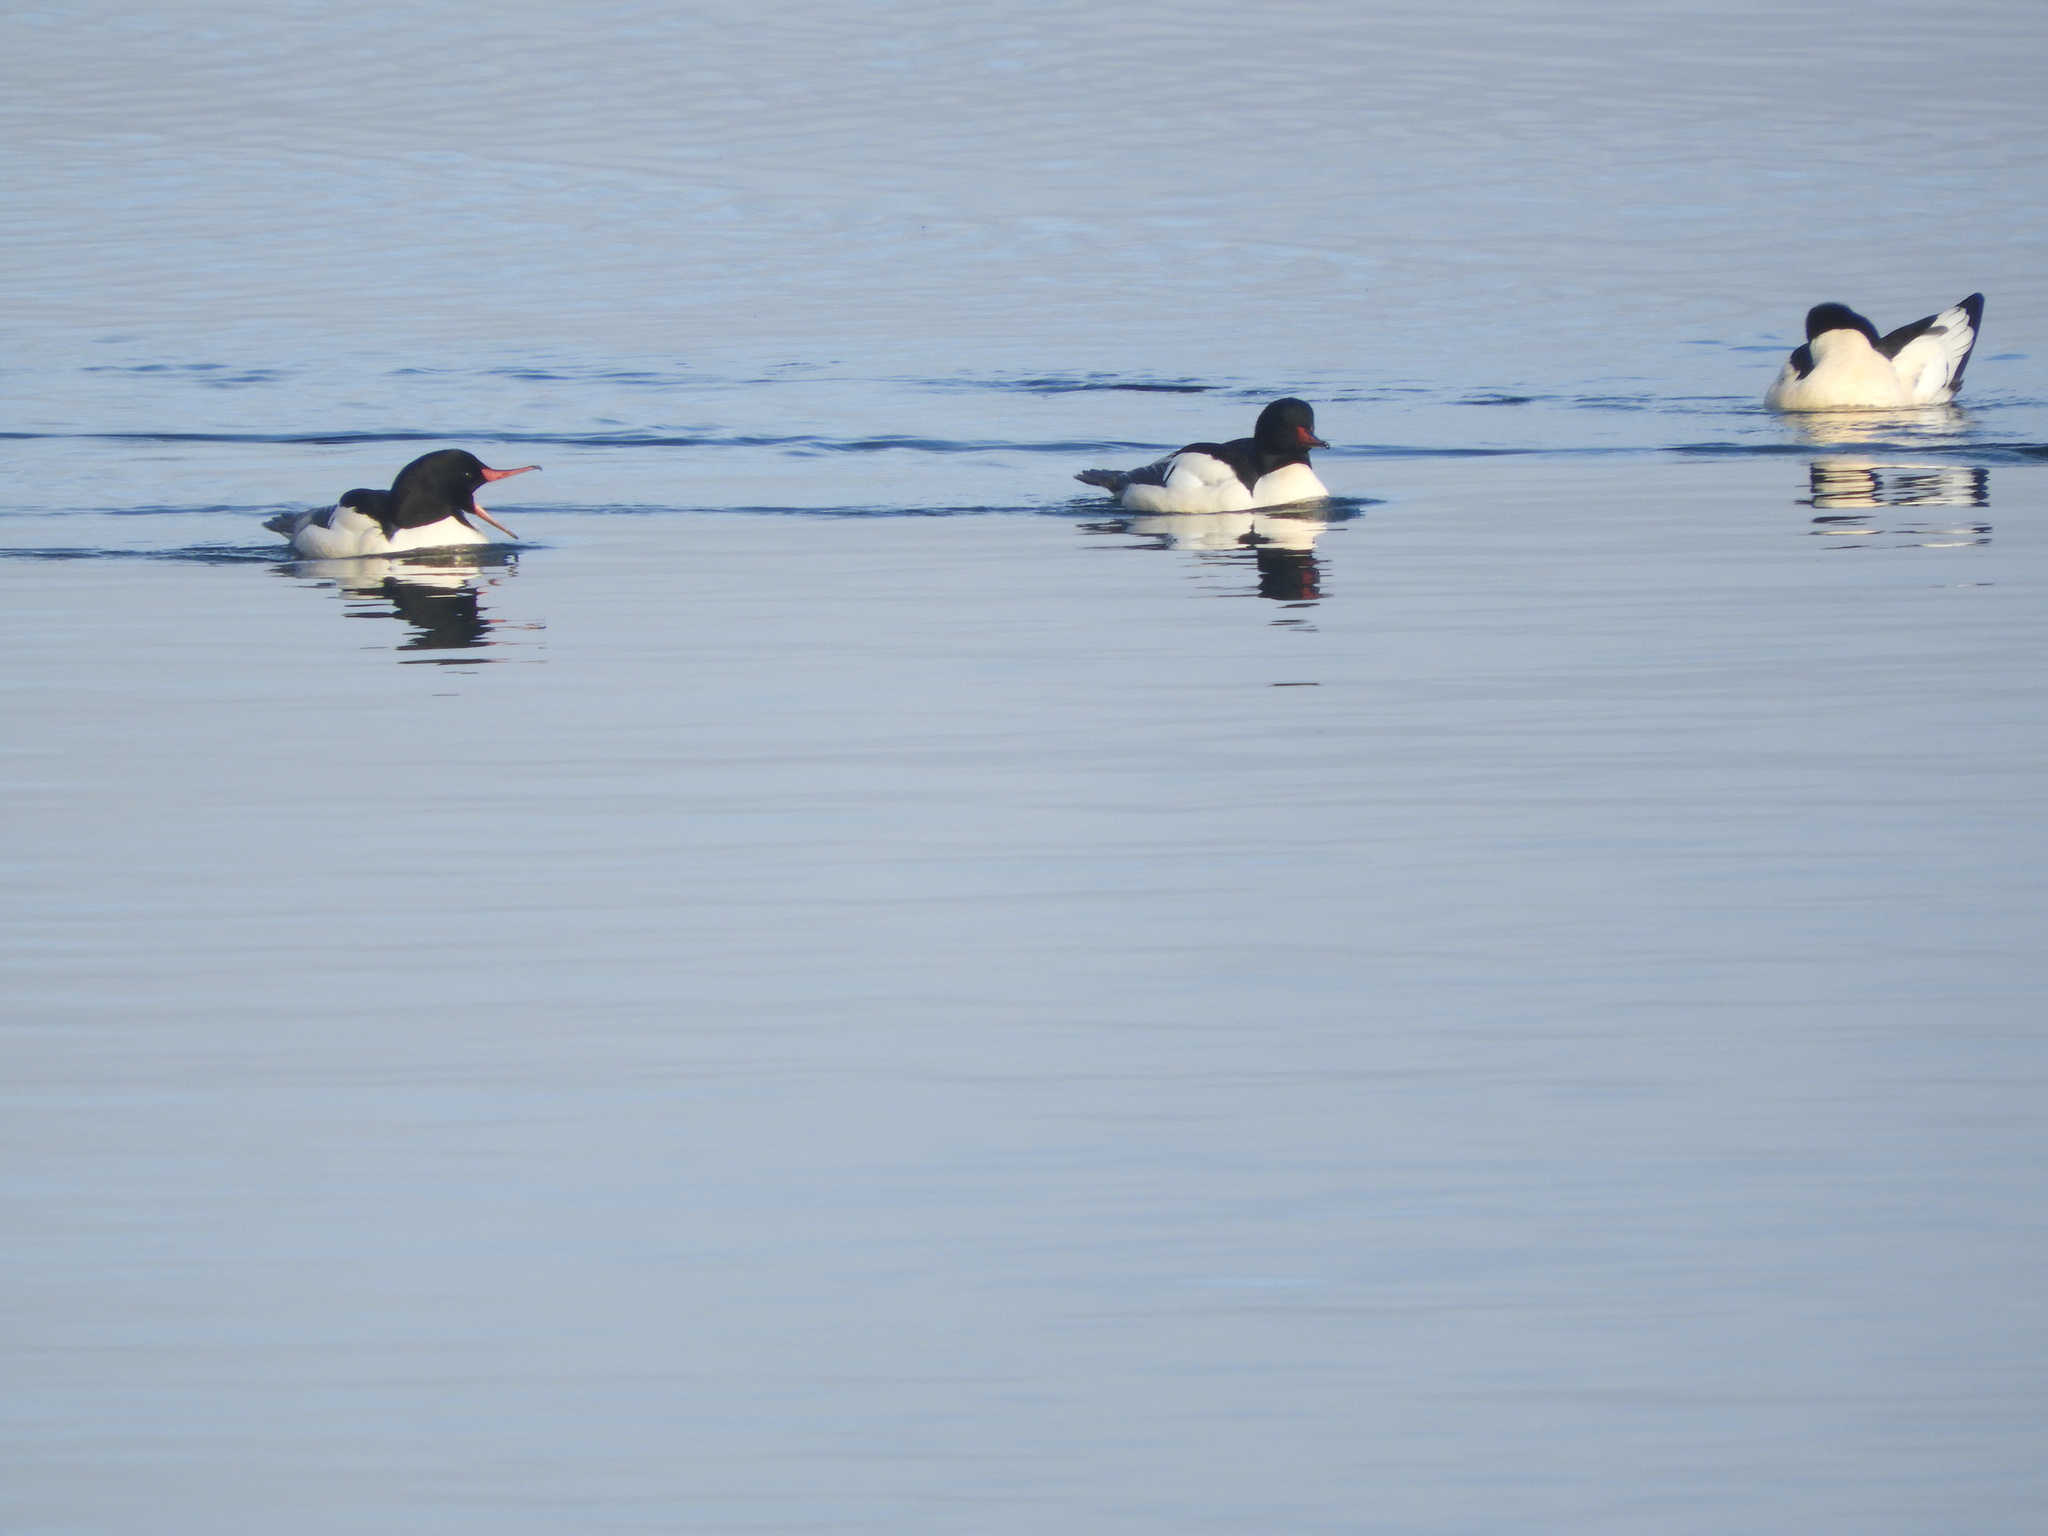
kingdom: Animalia
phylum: Chordata
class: Aves
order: Anseriformes
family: Anatidae
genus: Mergus
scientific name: Mergus merganser
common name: Common merganser
